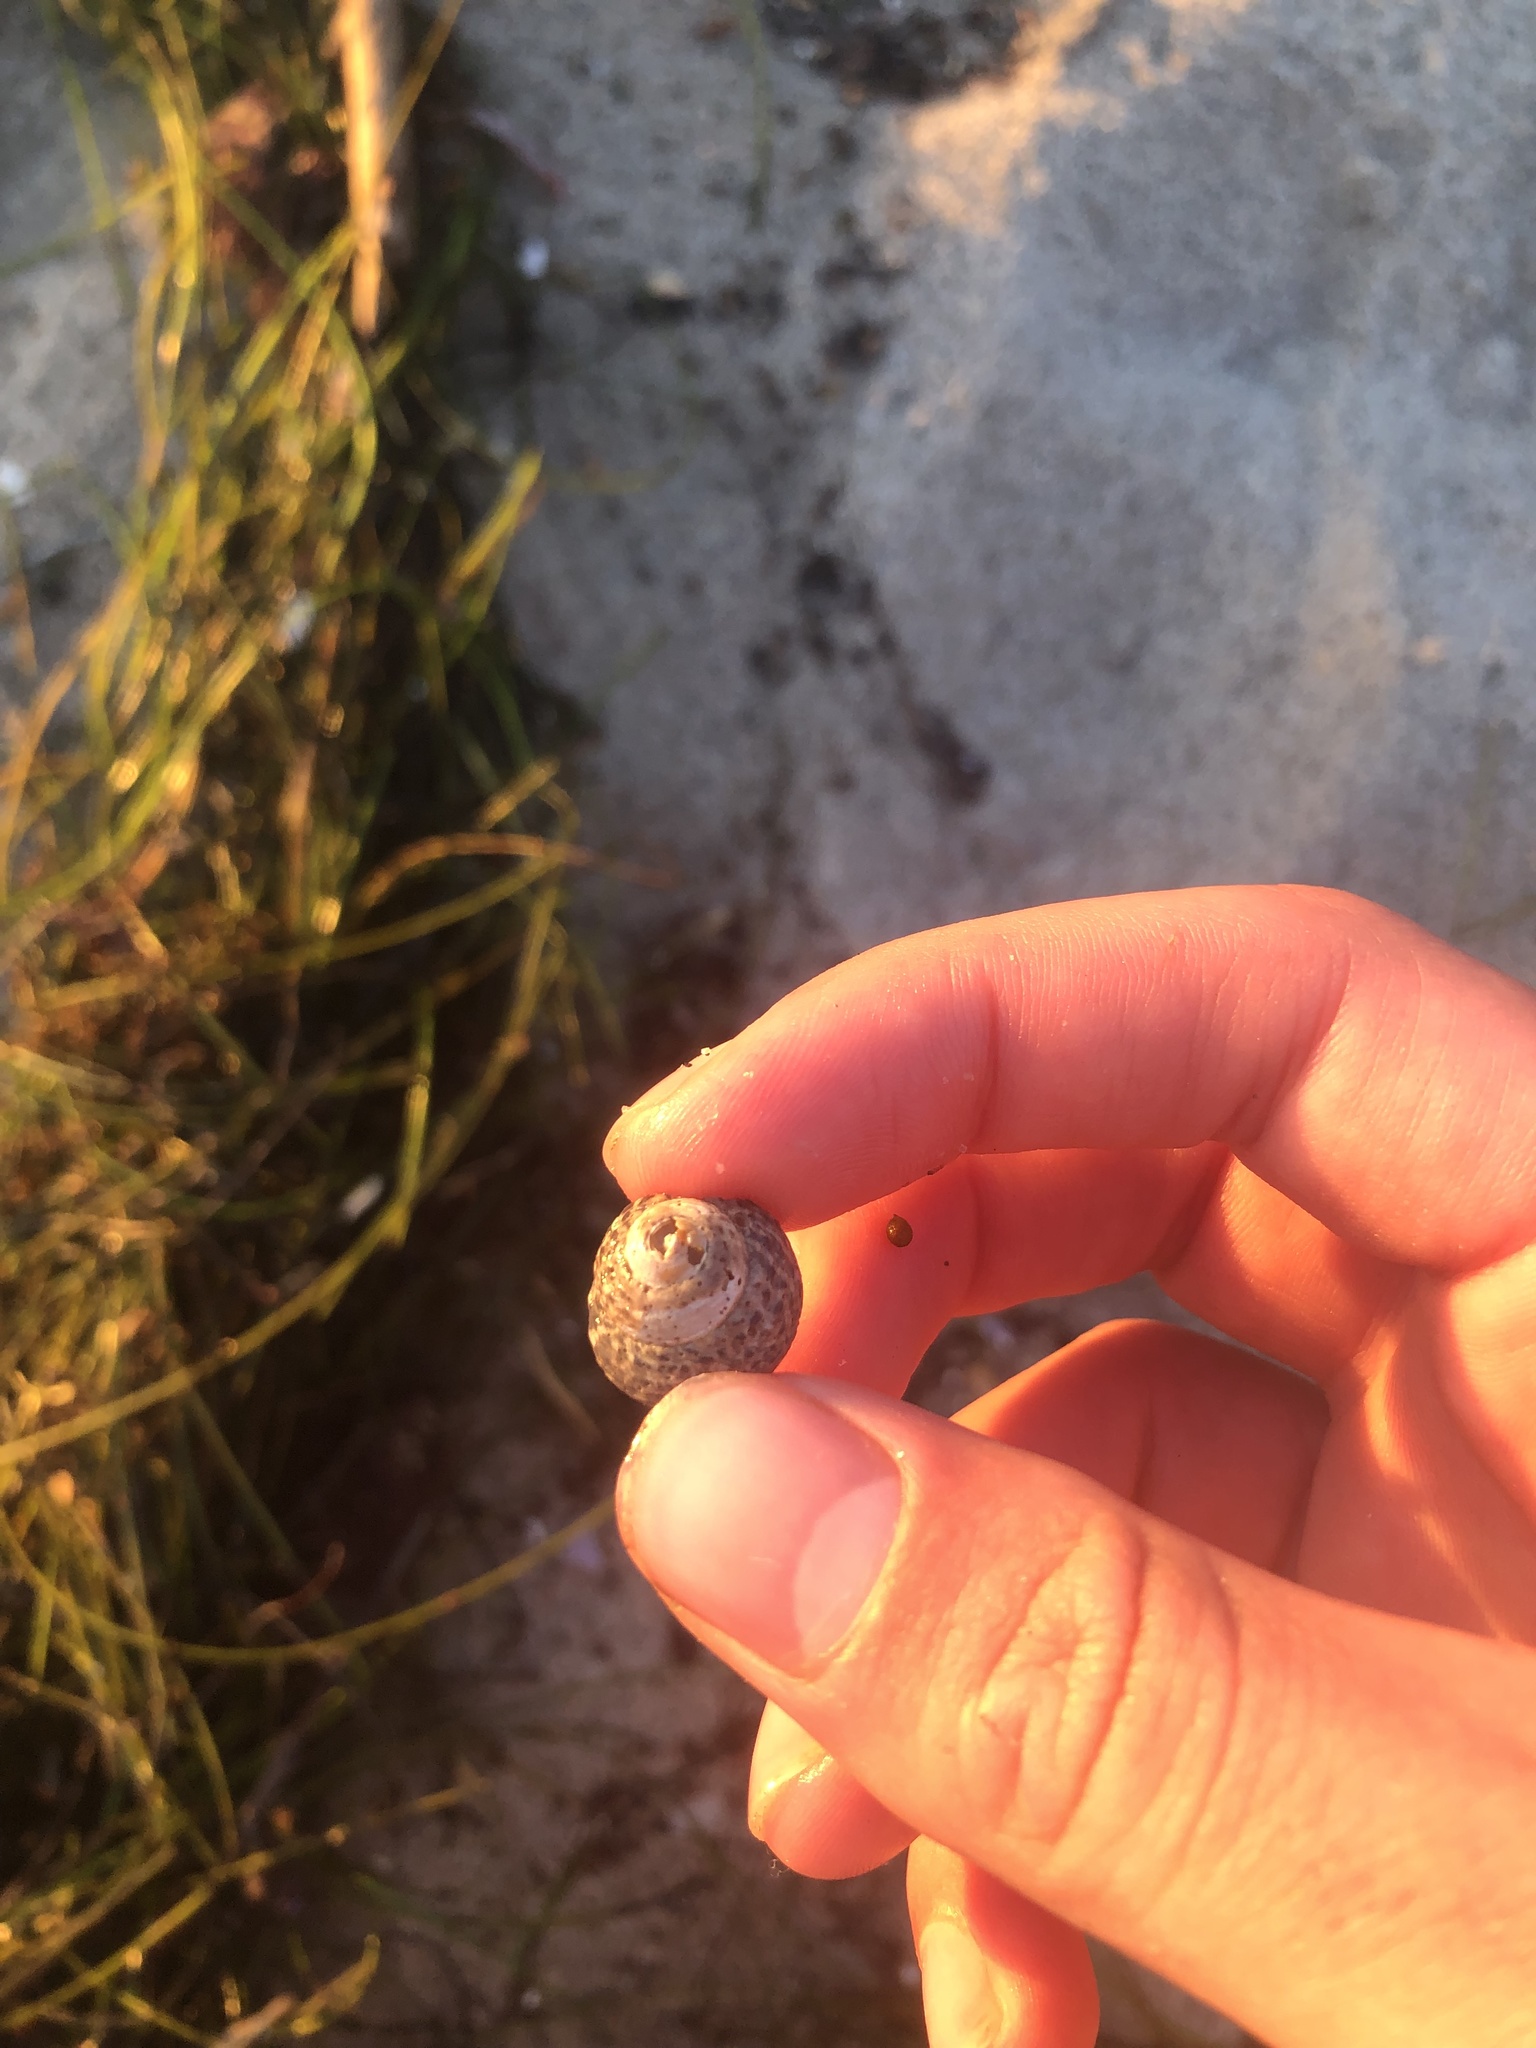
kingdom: Animalia
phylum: Mollusca
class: Gastropoda
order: Trochida
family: Tegulidae
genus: Tegula
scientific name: Tegula eiseni
